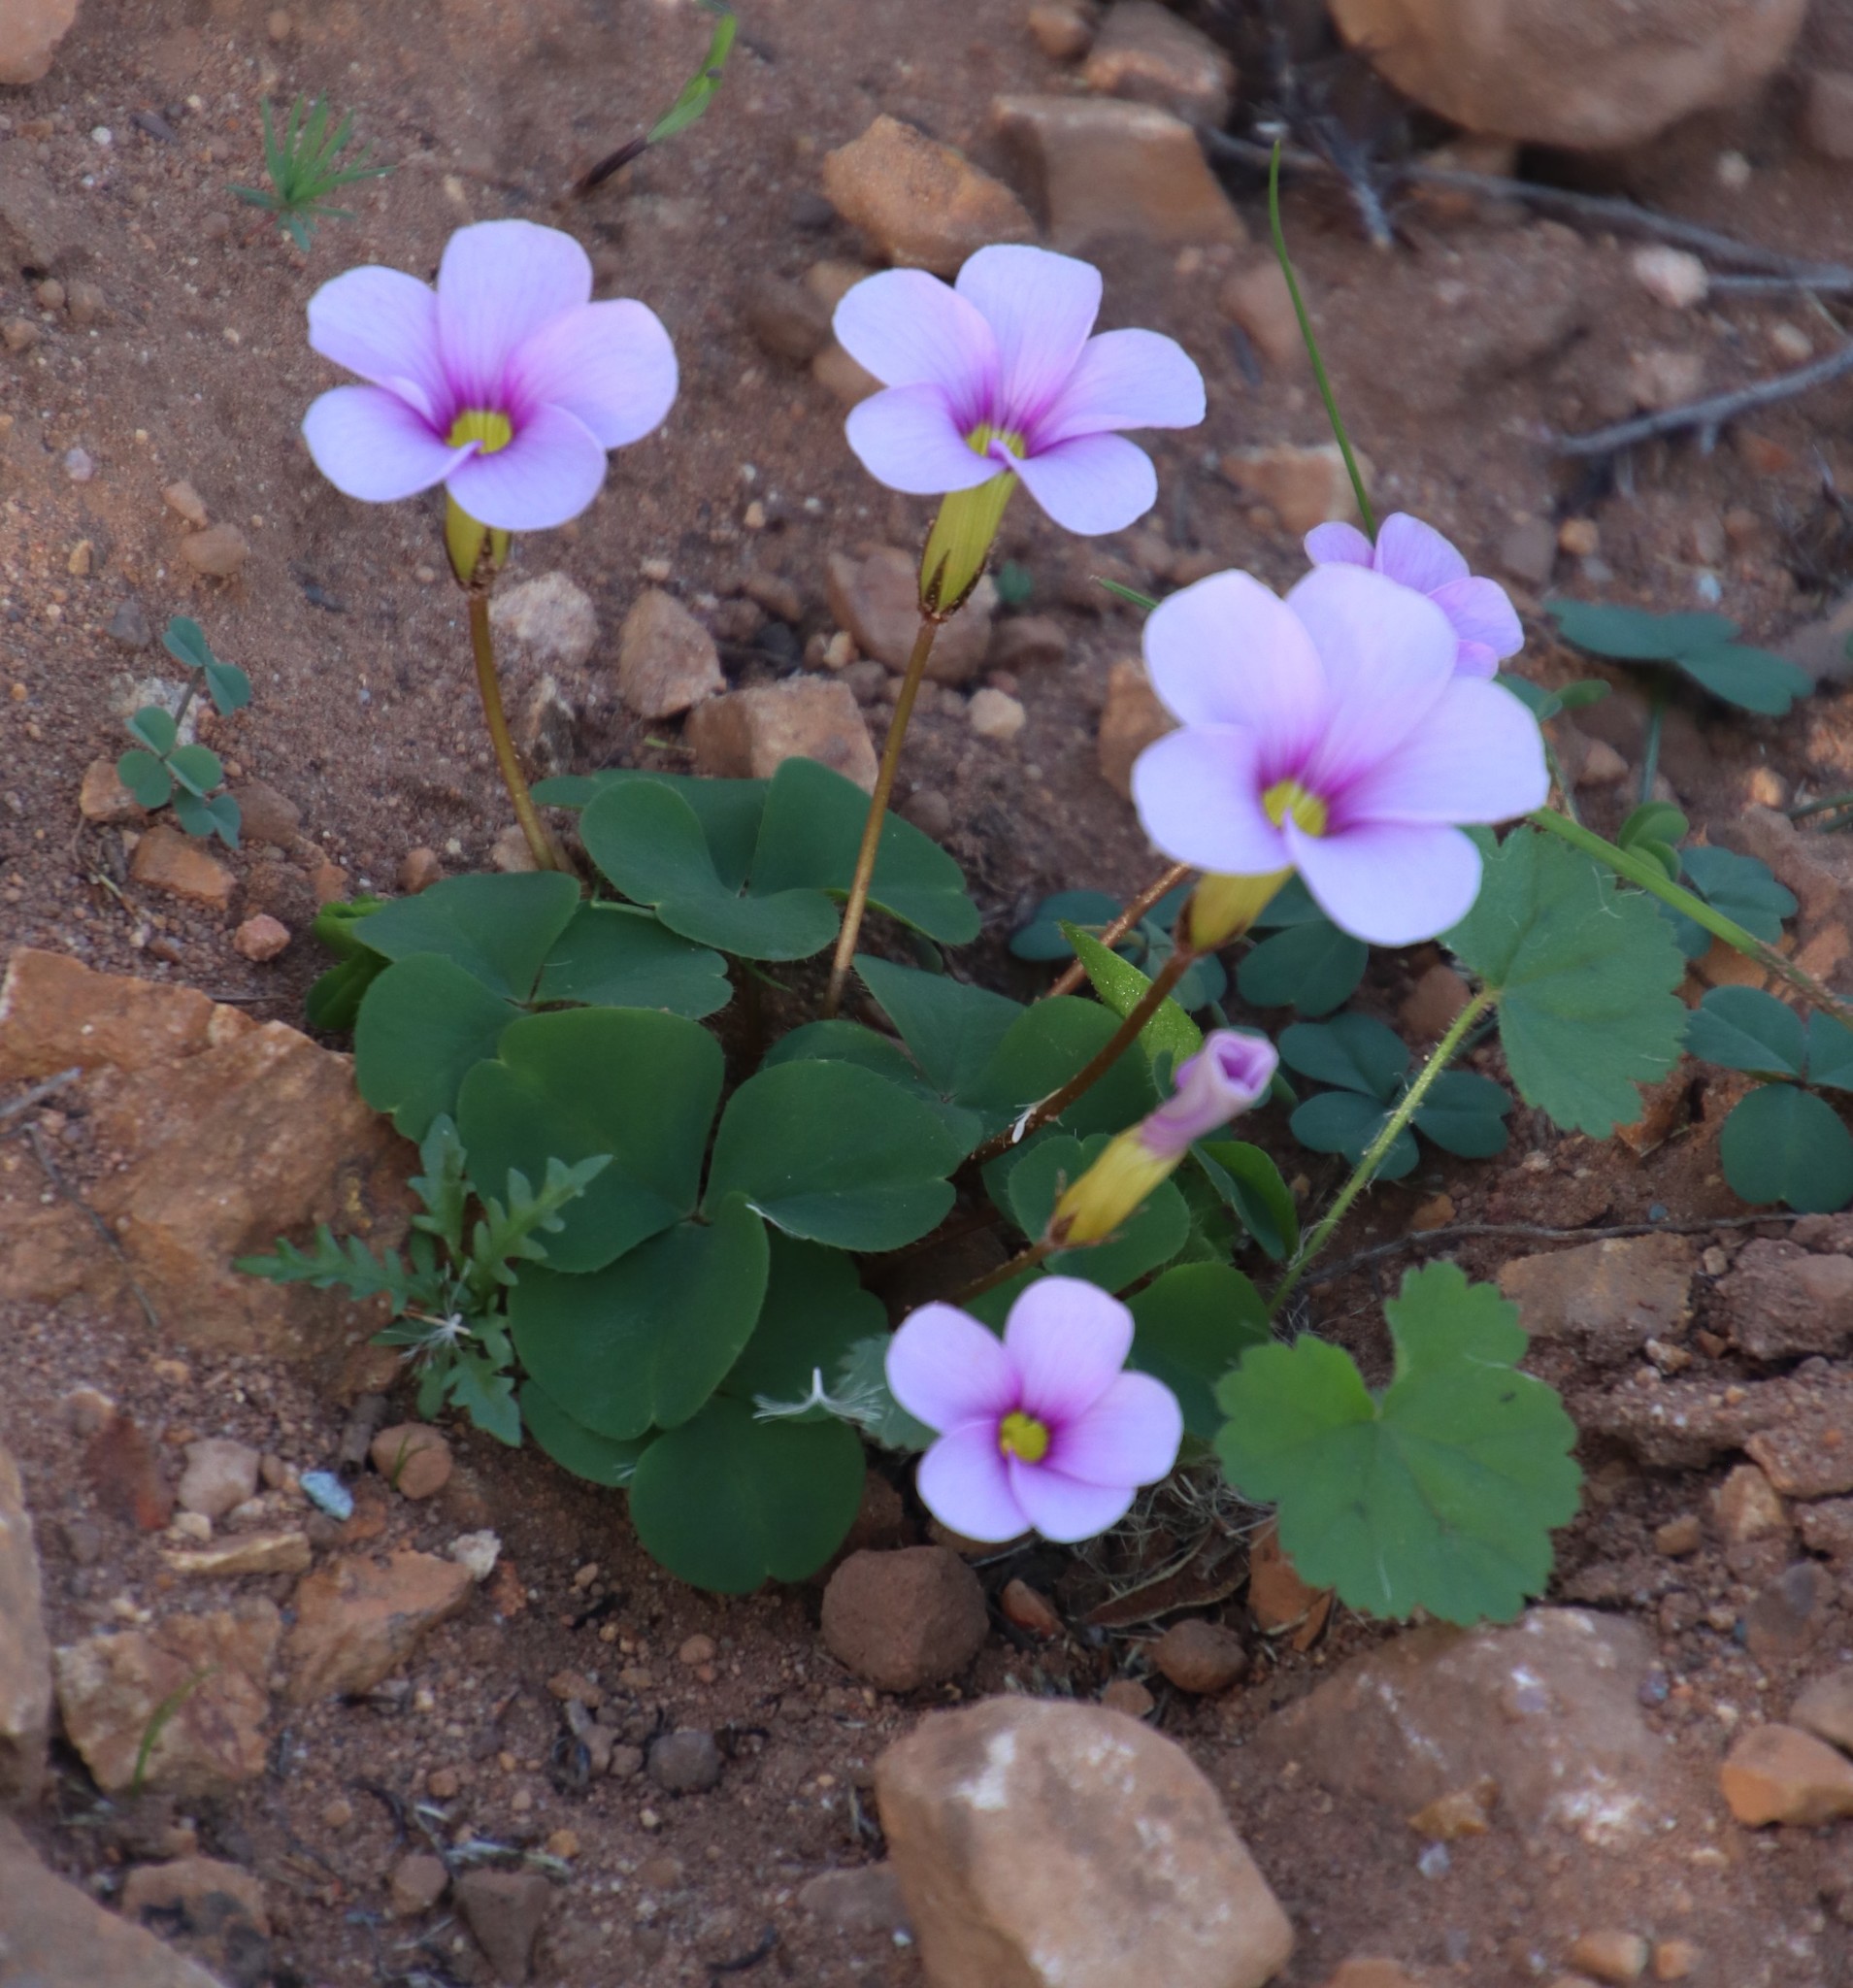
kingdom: Plantae
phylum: Tracheophyta
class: Magnoliopsida
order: Oxalidales
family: Oxalidaceae
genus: Oxalis
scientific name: Oxalis eckloniana
